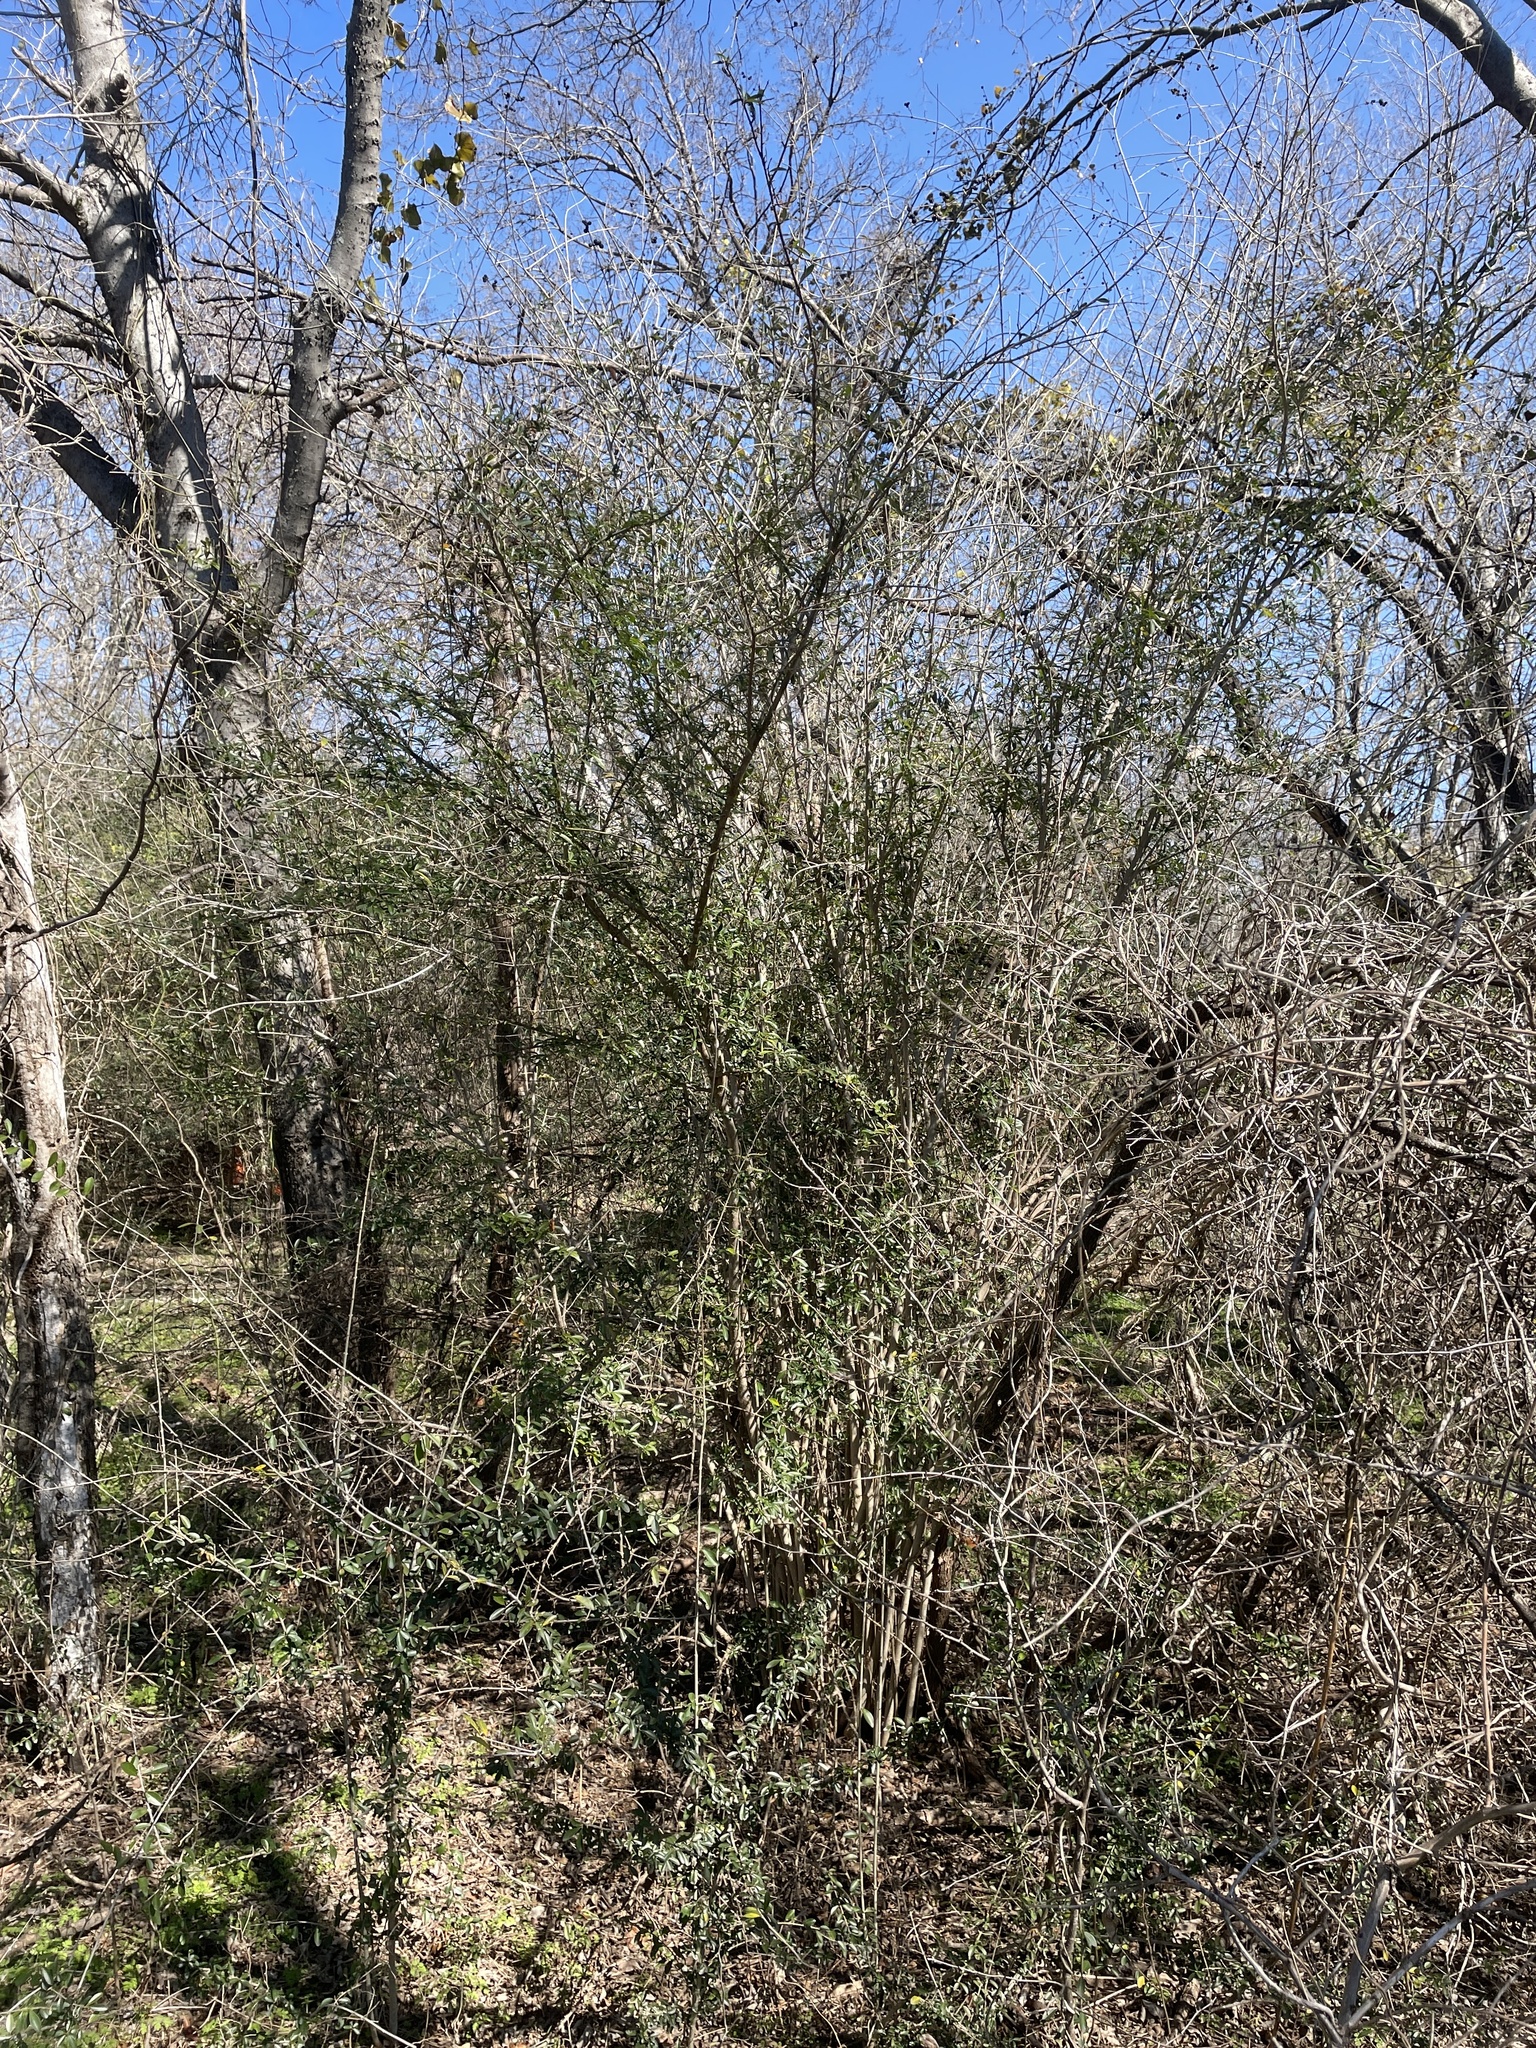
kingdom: Plantae
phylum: Tracheophyta
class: Magnoliopsida
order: Lamiales
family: Oleaceae
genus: Ligustrum
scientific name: Ligustrum quihoui
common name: Waxyleaf privet
